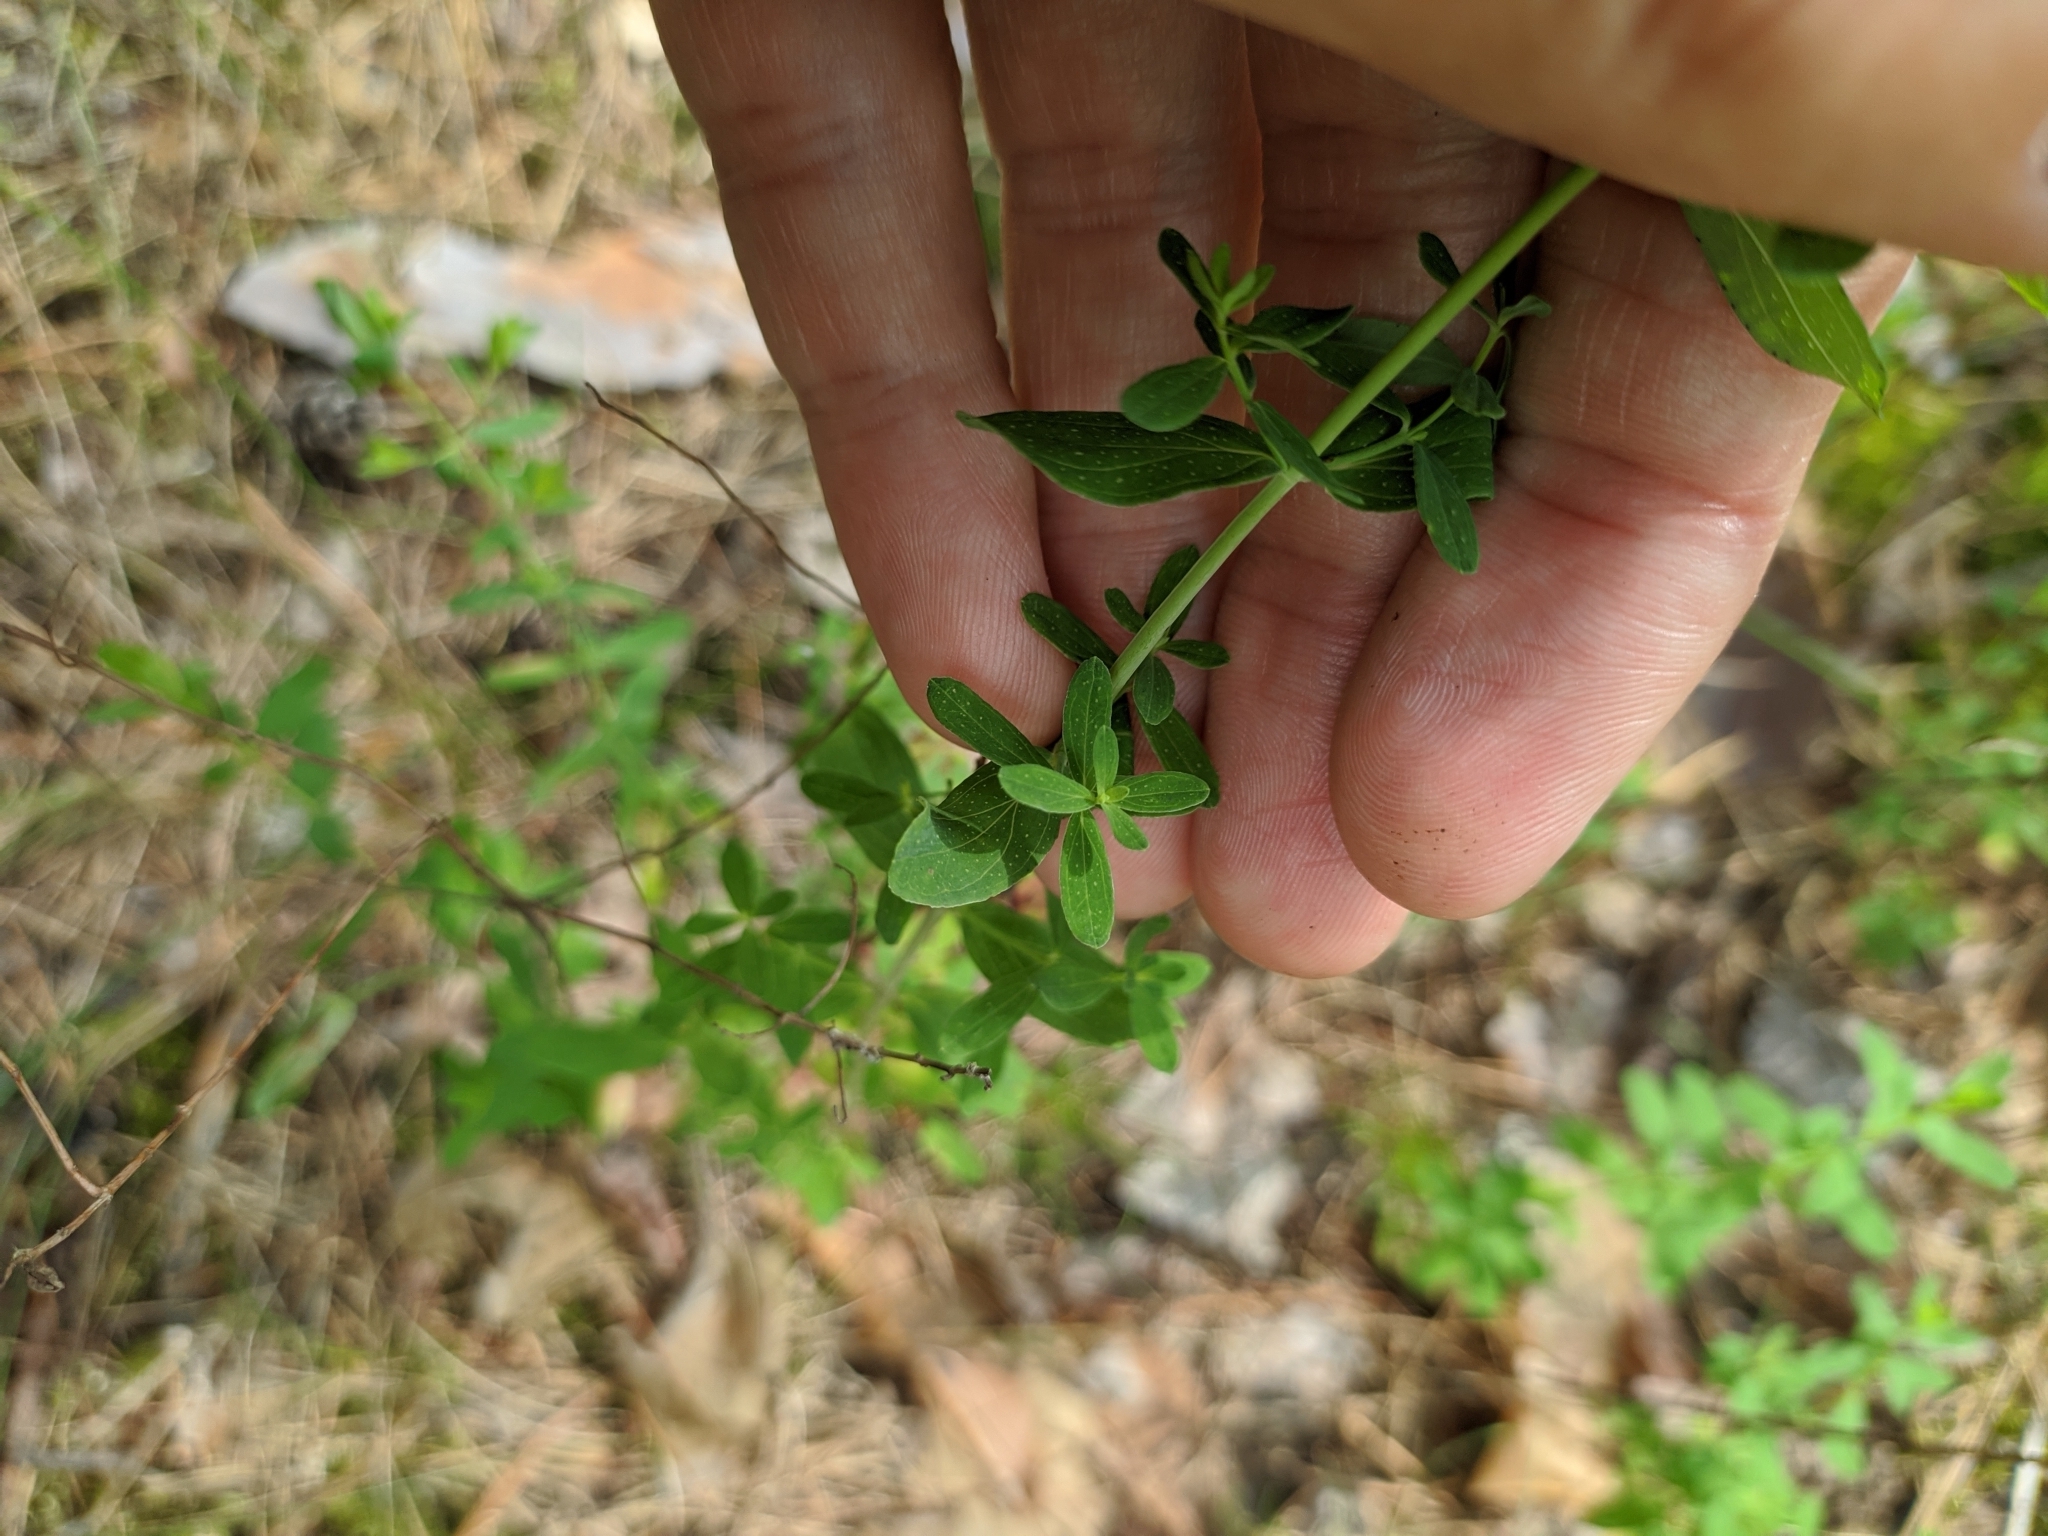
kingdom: Plantae
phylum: Tracheophyta
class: Magnoliopsida
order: Malpighiales
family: Hypericaceae
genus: Hypericum
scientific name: Hypericum perforatum
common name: Common st. johnswort
